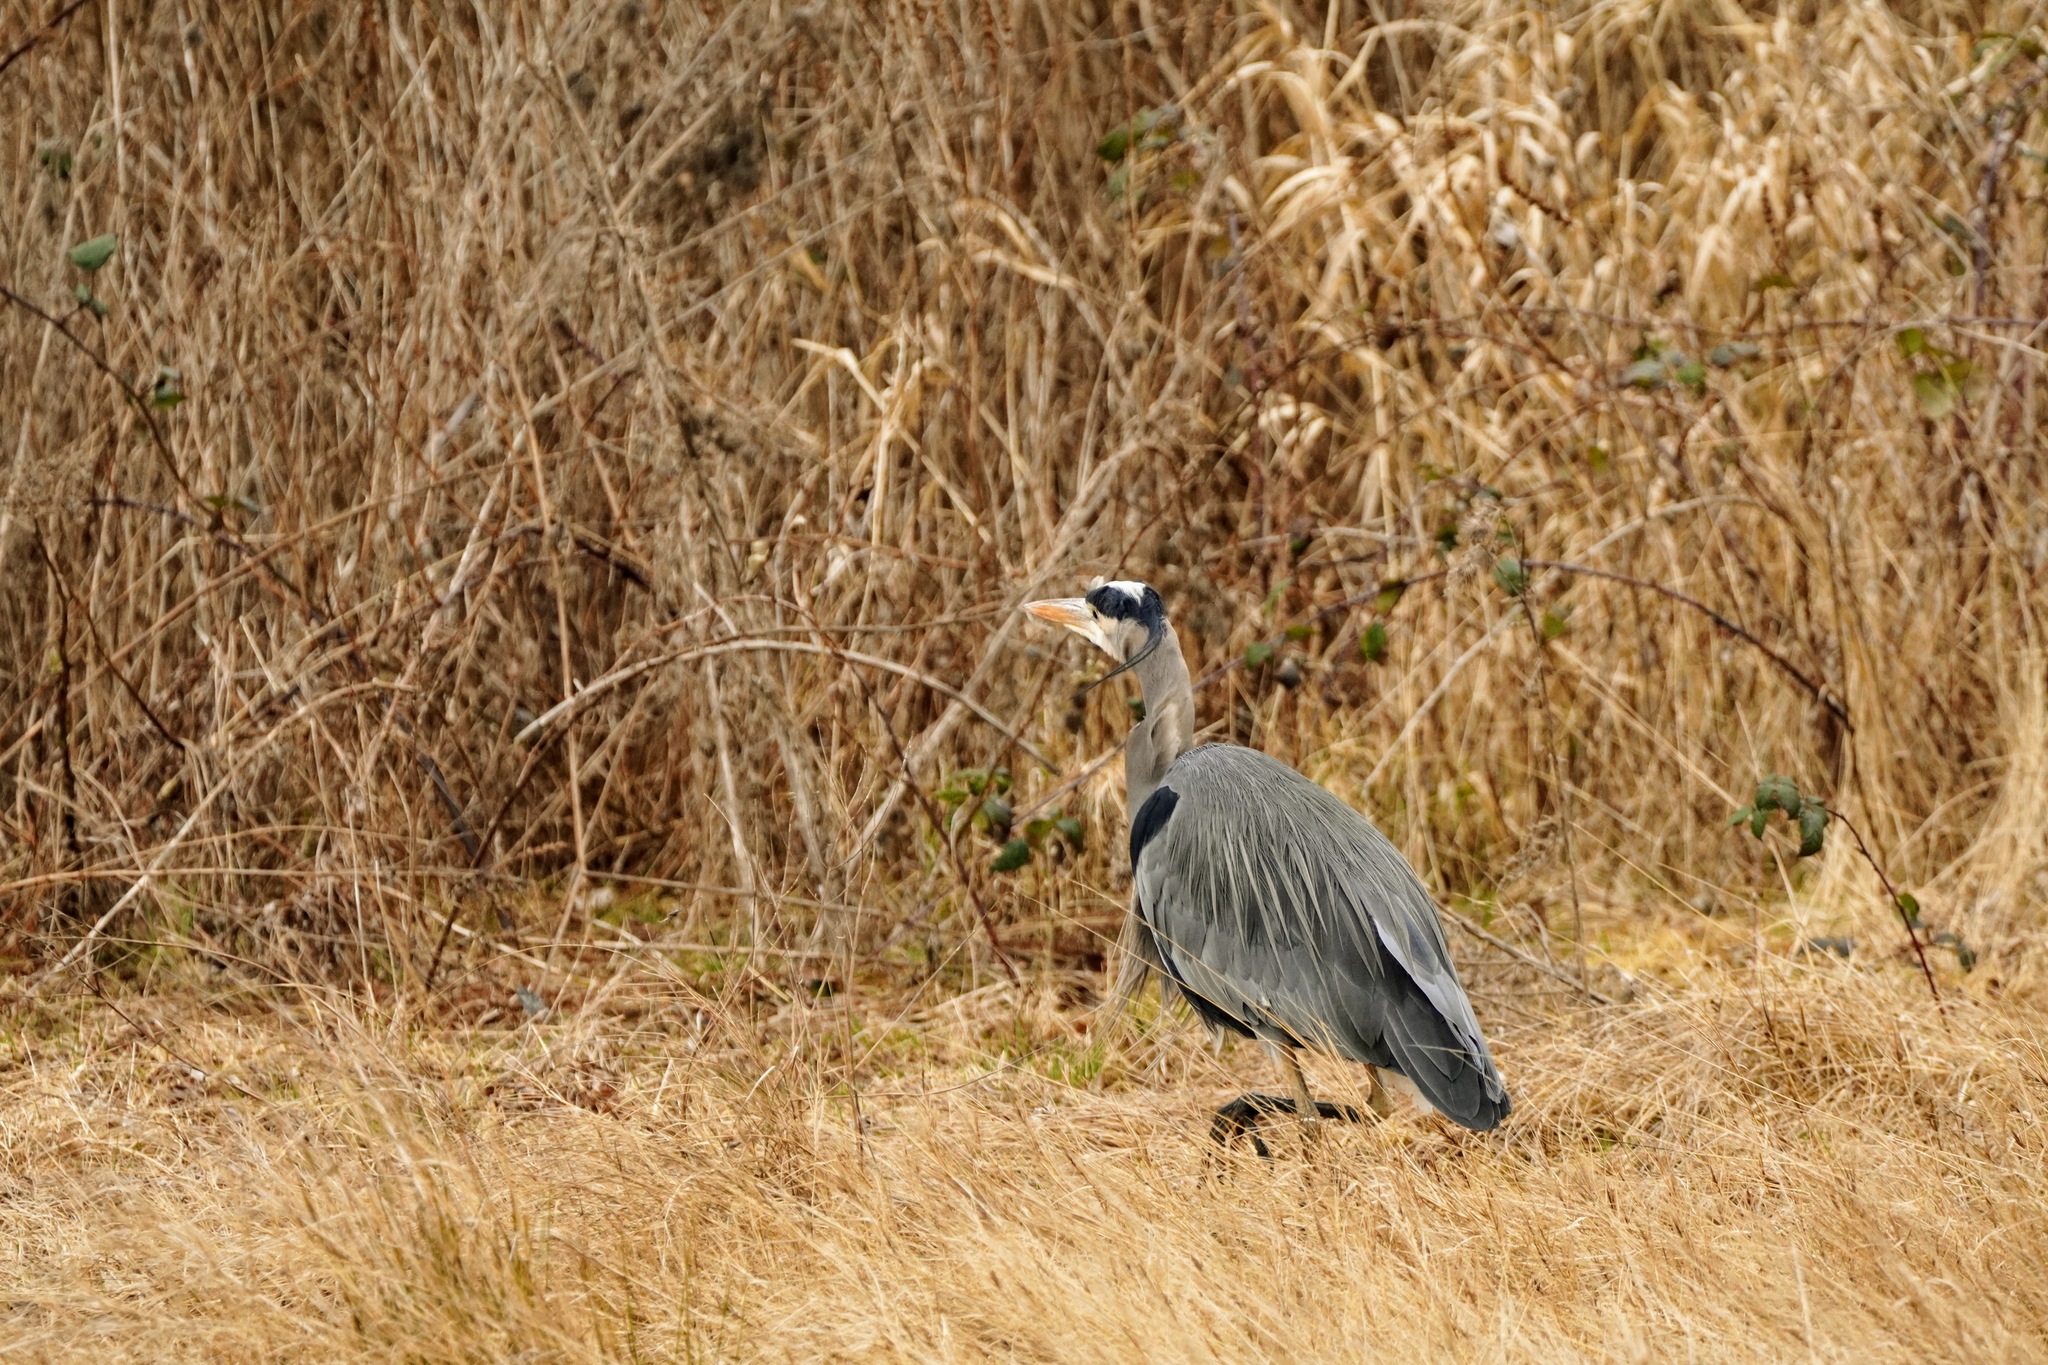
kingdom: Animalia
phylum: Chordata
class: Aves
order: Pelecaniformes
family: Ardeidae
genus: Ardea
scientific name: Ardea herodias
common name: Great blue heron
